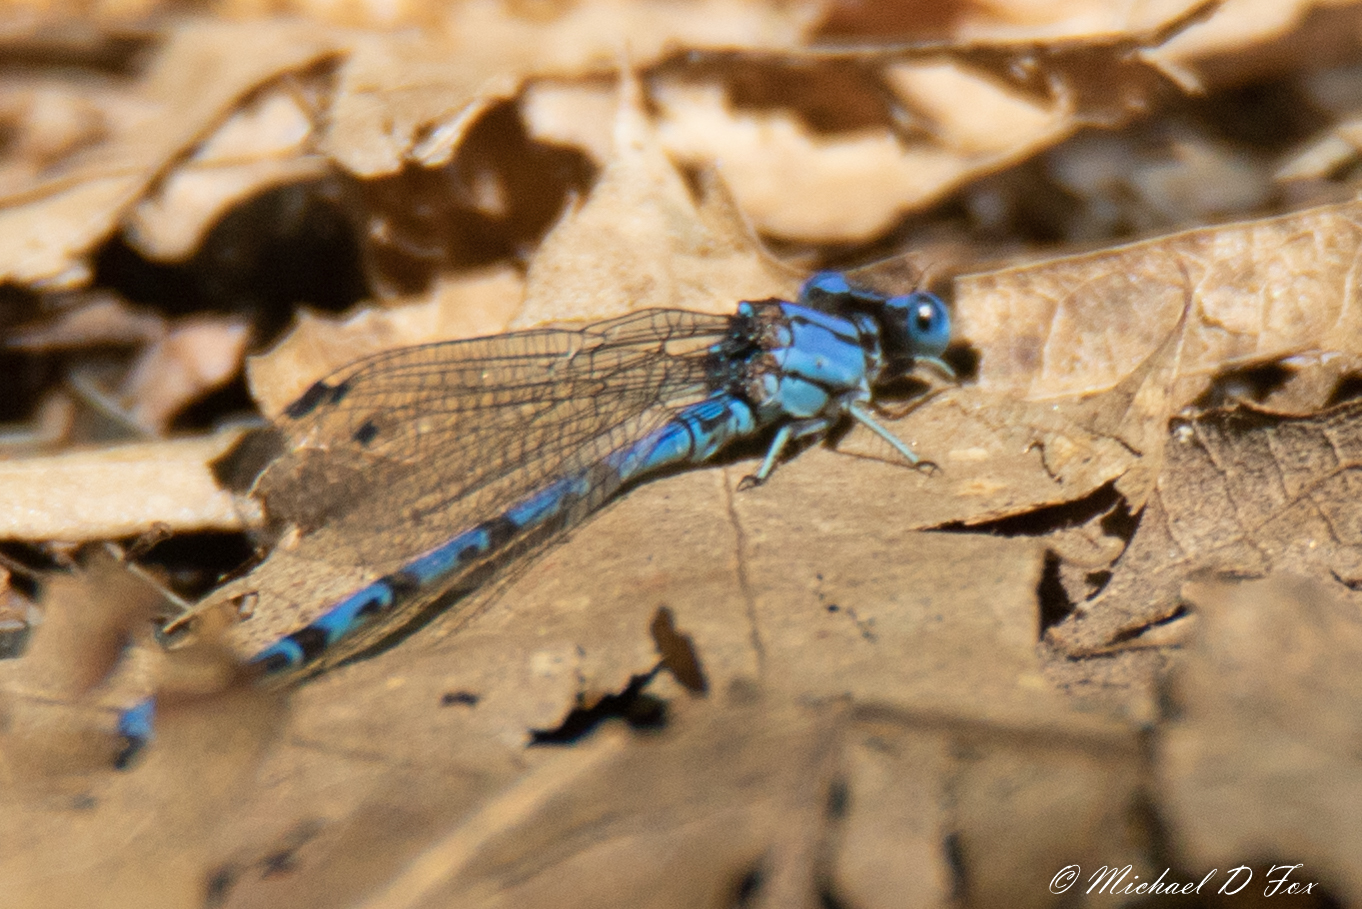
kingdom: Animalia
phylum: Arthropoda
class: Insecta
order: Odonata
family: Coenagrionidae
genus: Argia
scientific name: Argia funebris
